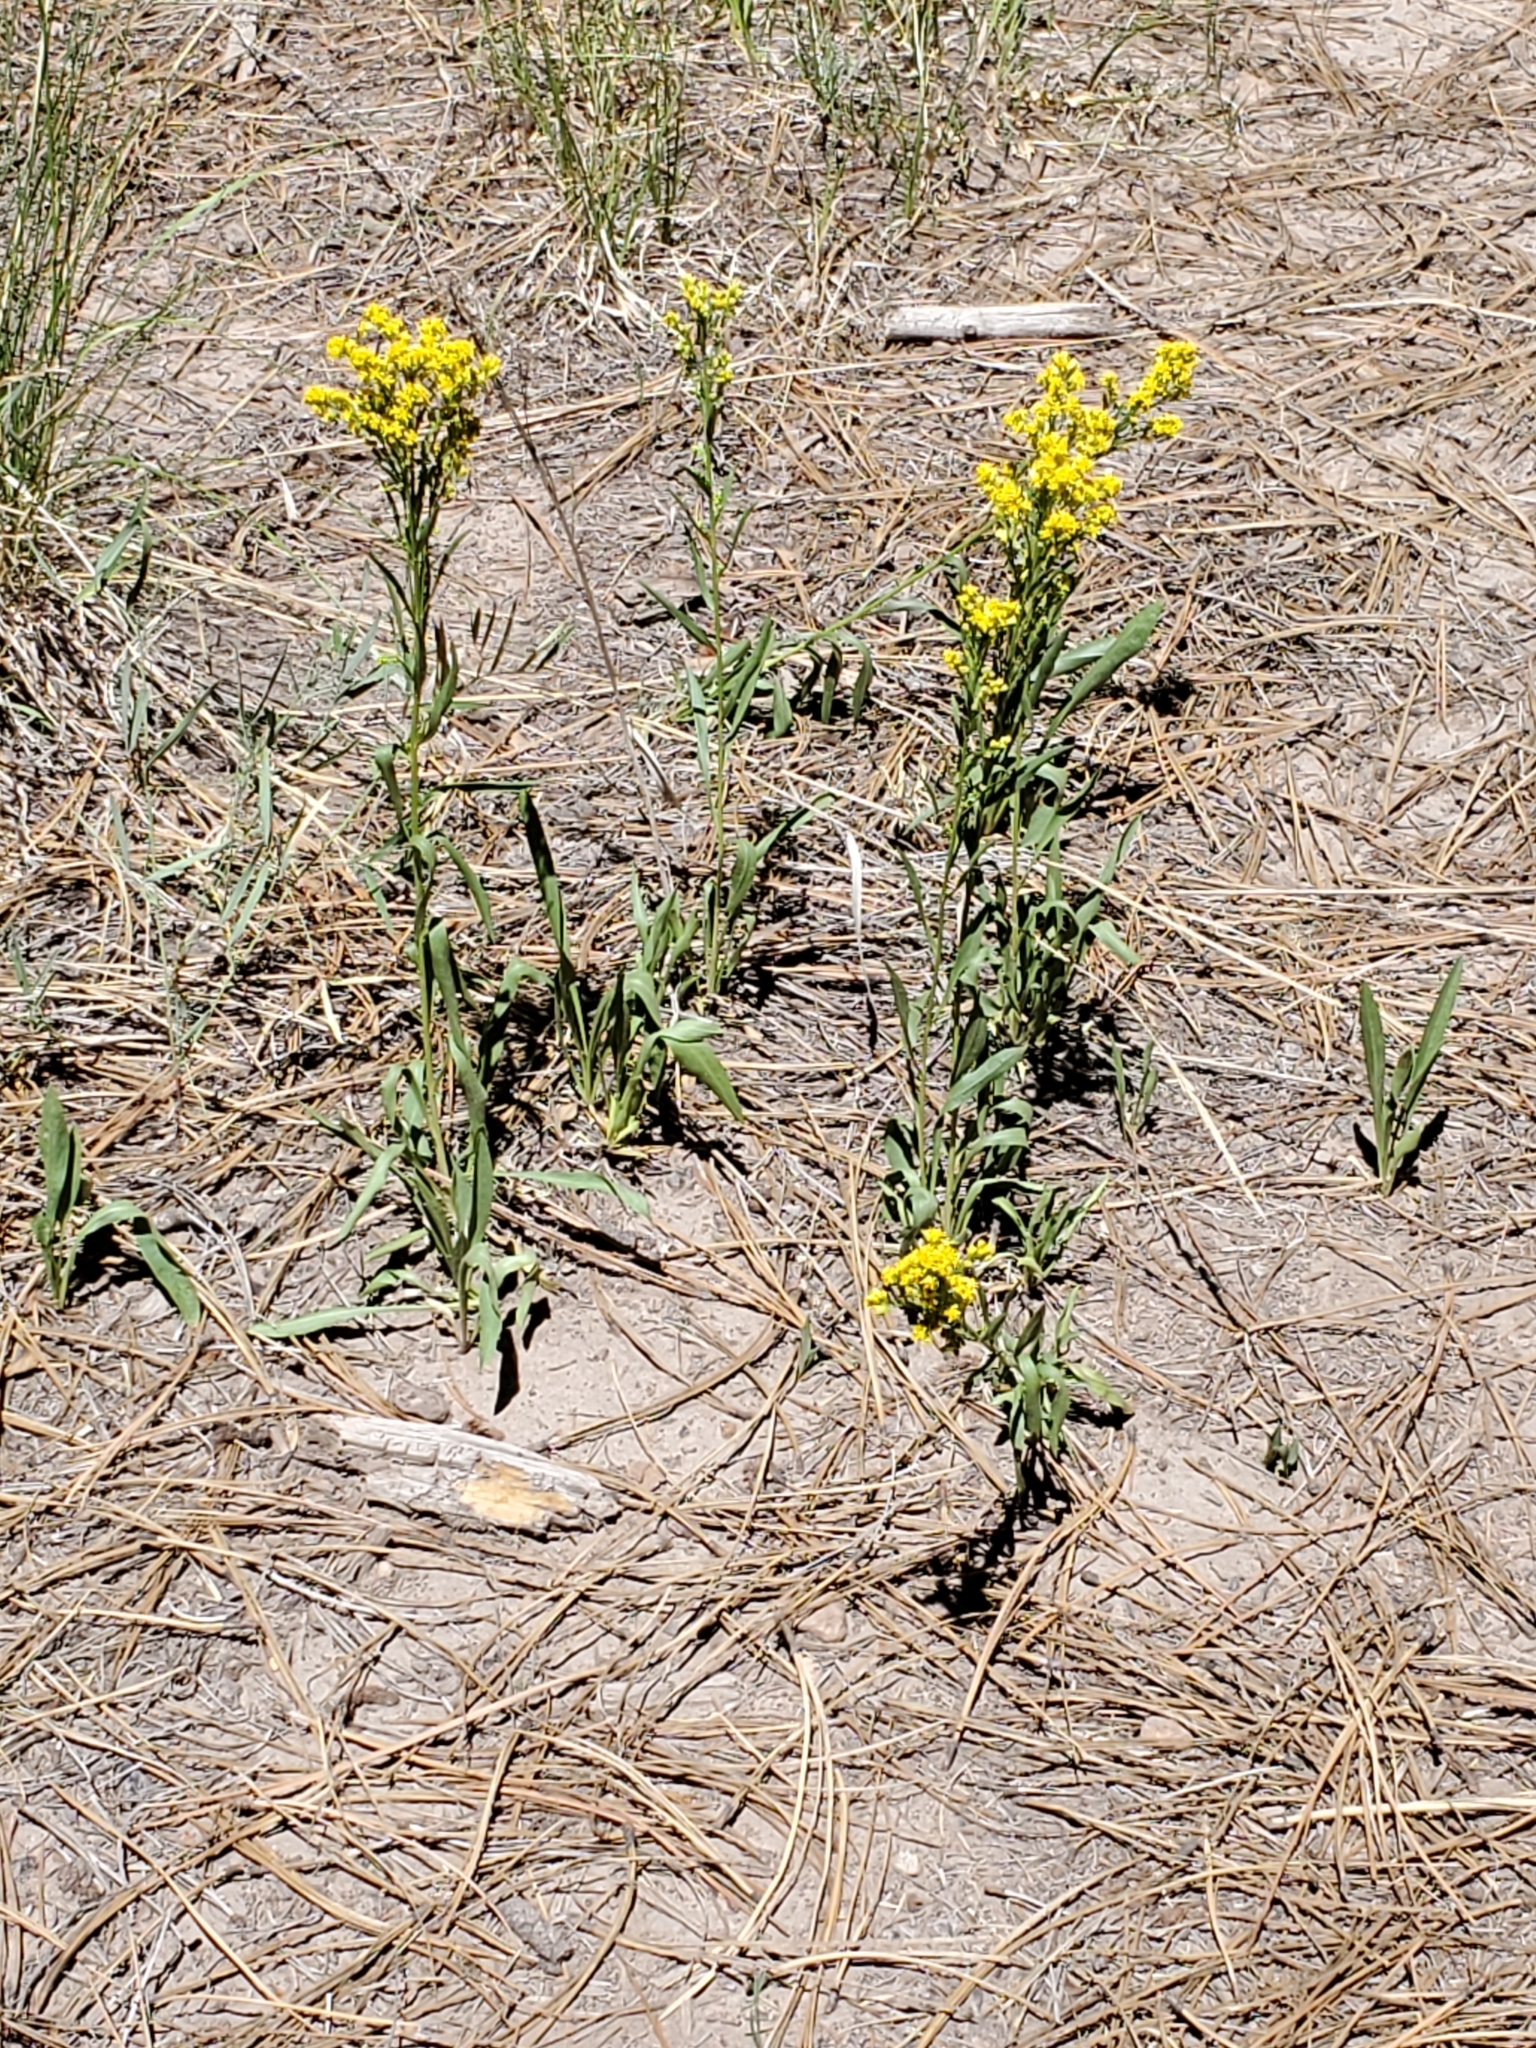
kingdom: Plantae
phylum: Tracheophyta
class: Magnoliopsida
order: Asterales
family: Asteraceae
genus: Solidago
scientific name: Solidago missouriensis
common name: Prairie goldenrod
